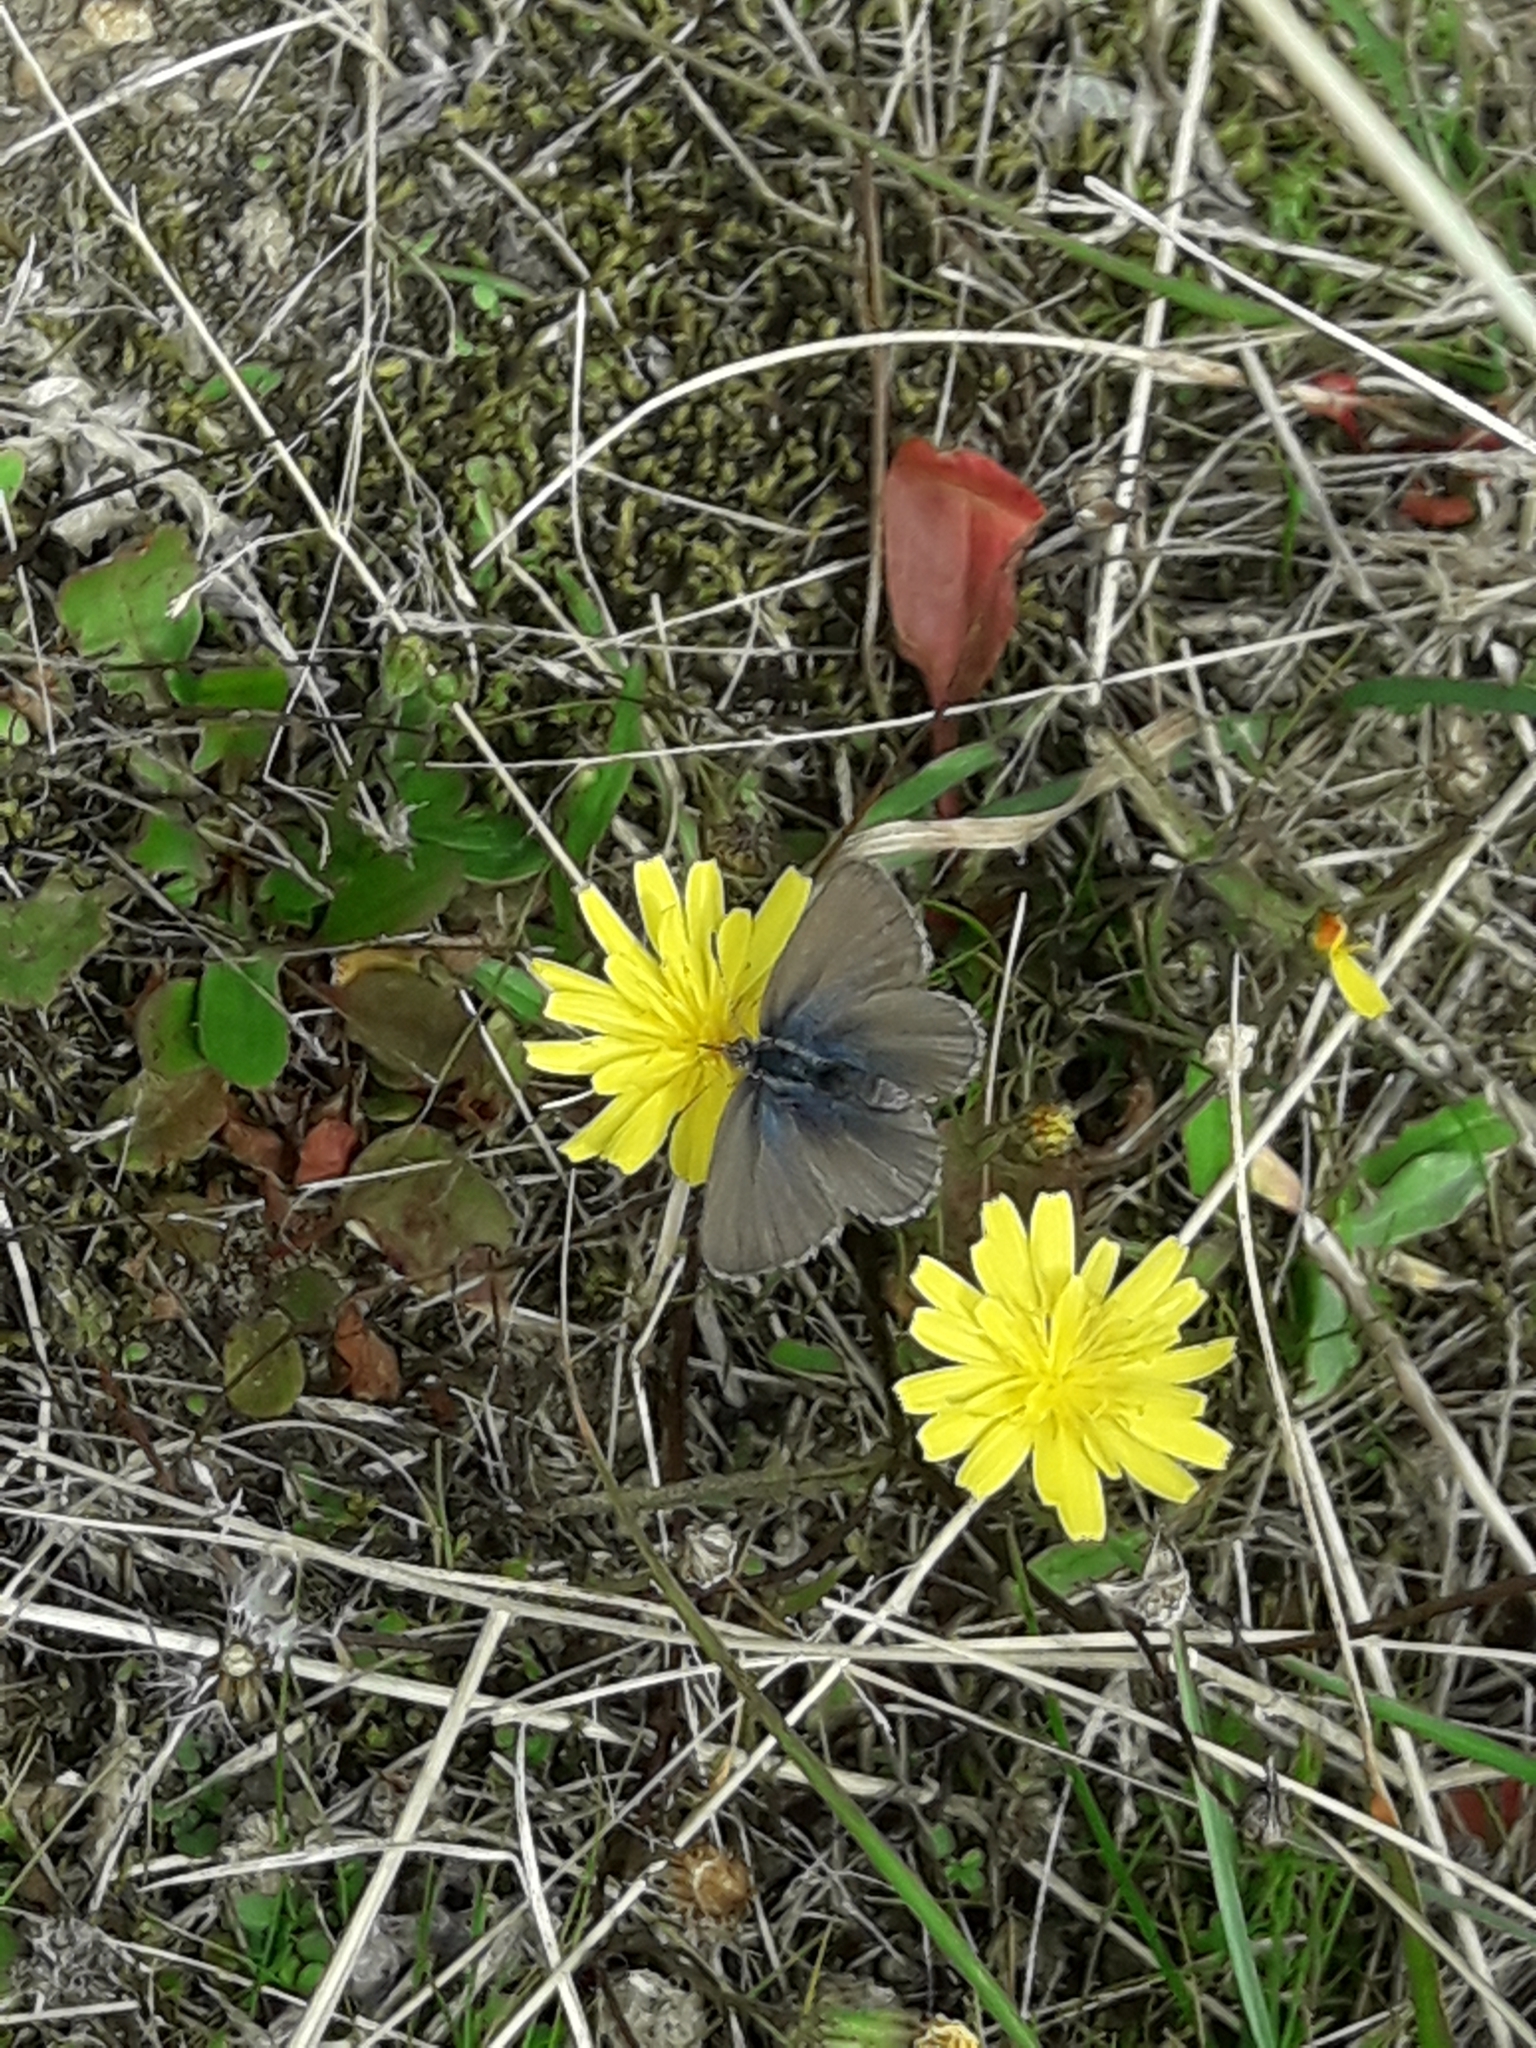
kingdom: Animalia
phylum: Arthropoda
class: Insecta
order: Lepidoptera
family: Lycaenidae
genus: Zizina
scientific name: Zizina labradus
